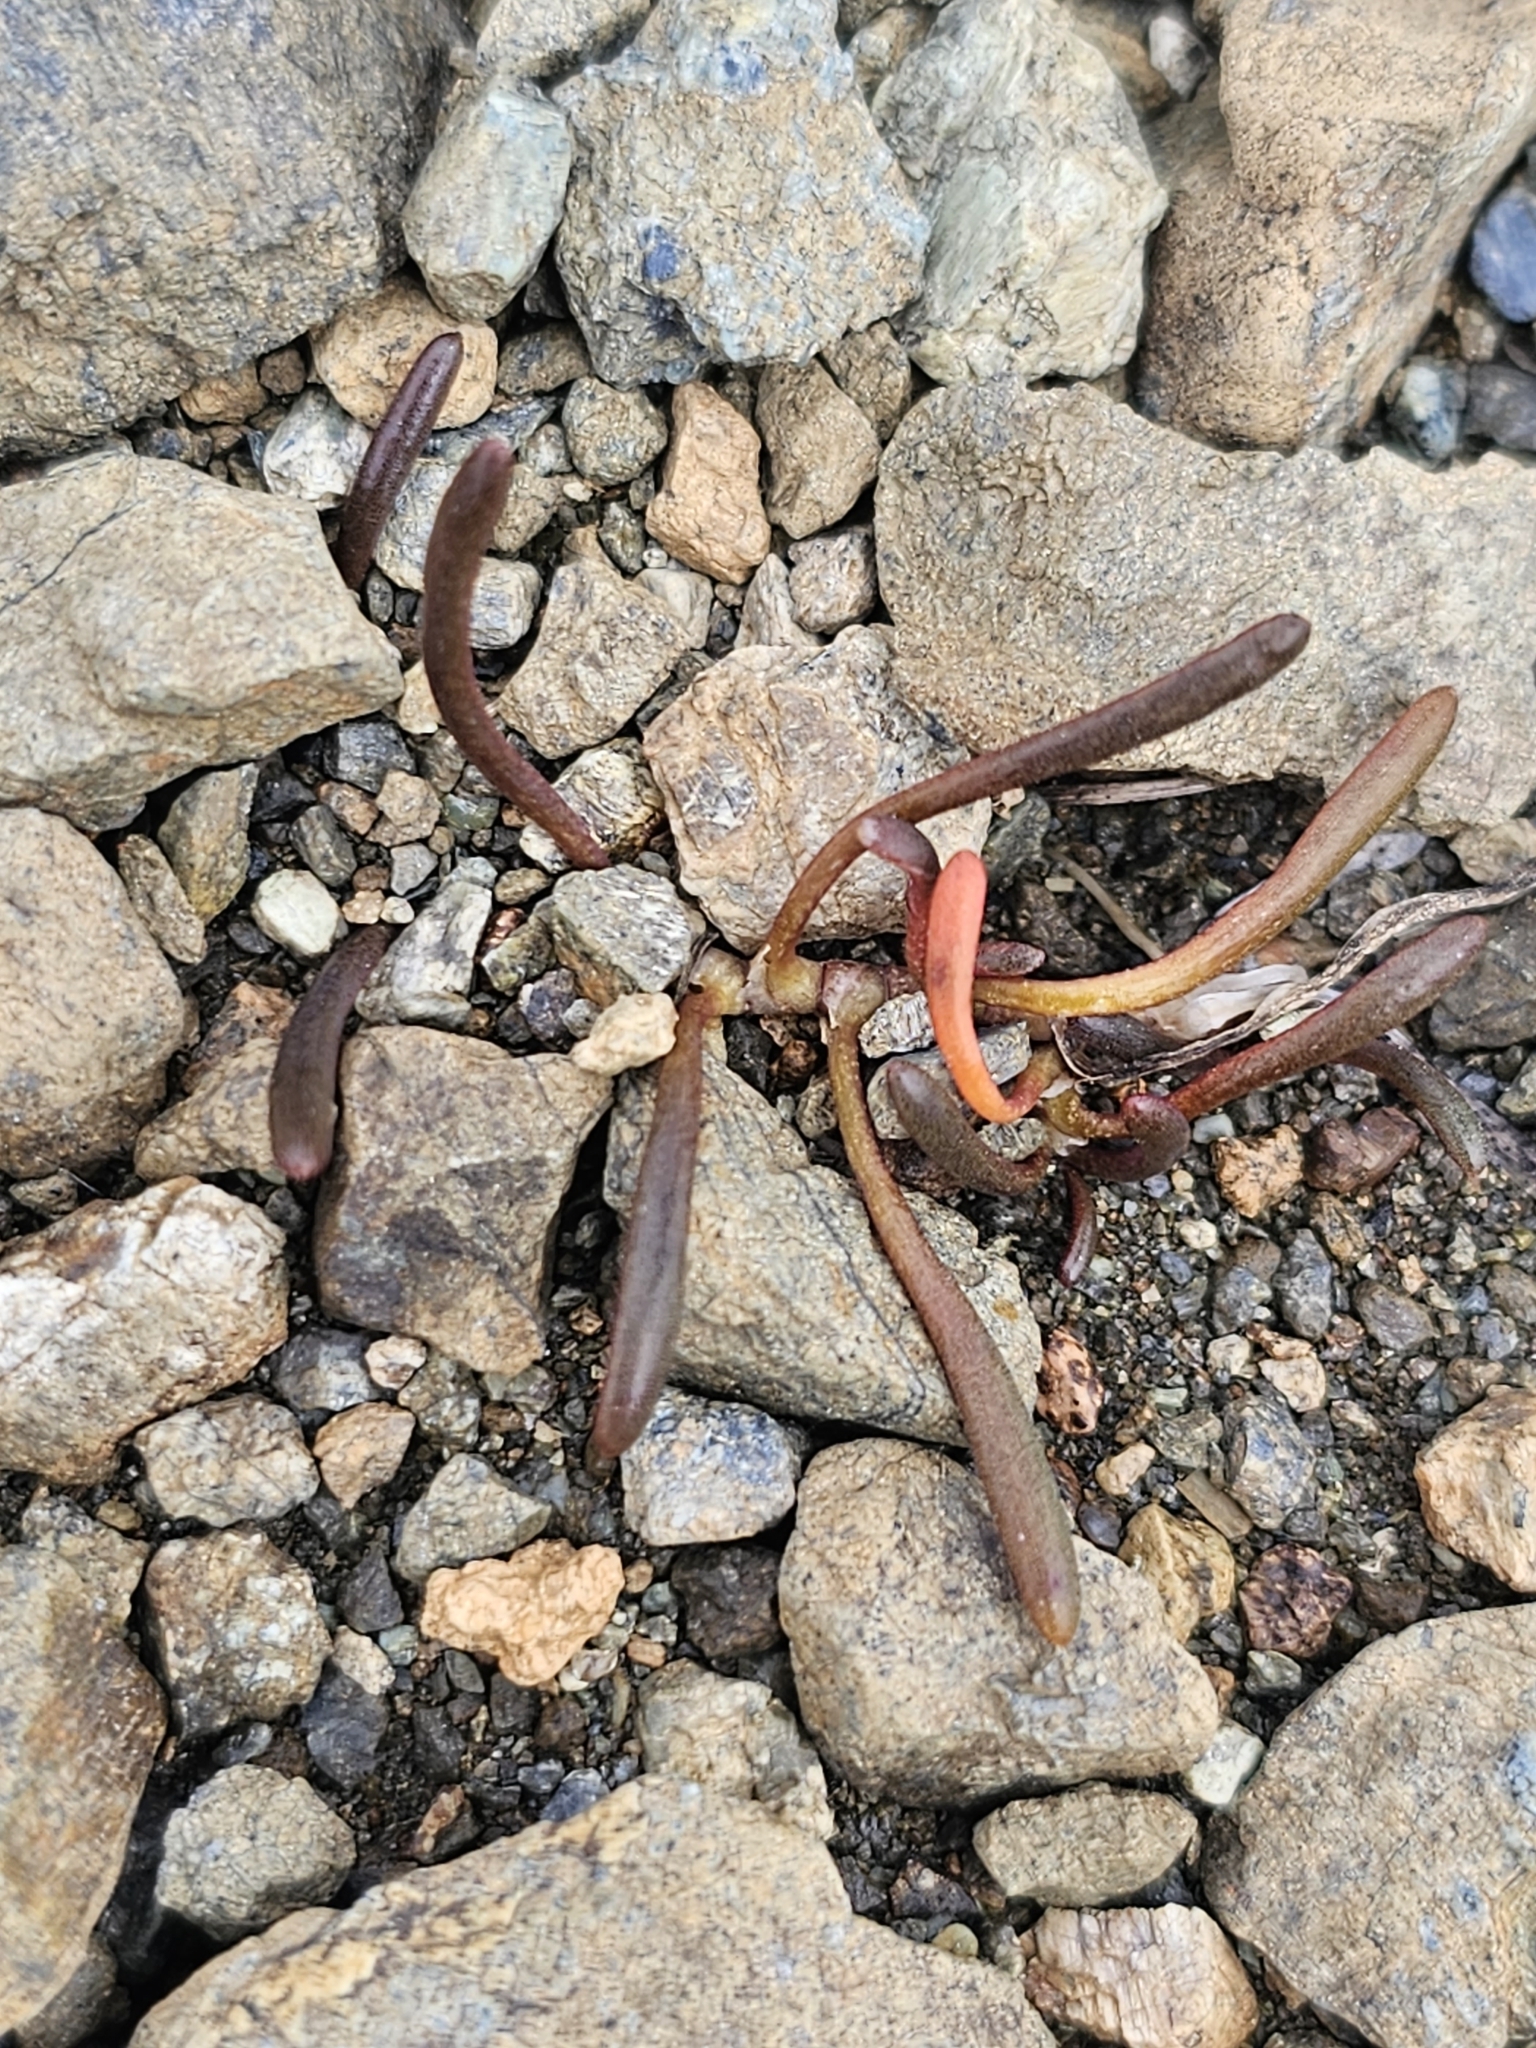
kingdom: Plantae
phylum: Tracheophyta
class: Magnoliopsida
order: Caryophyllales
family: Montiaceae
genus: Montia
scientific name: Montia racemosa
